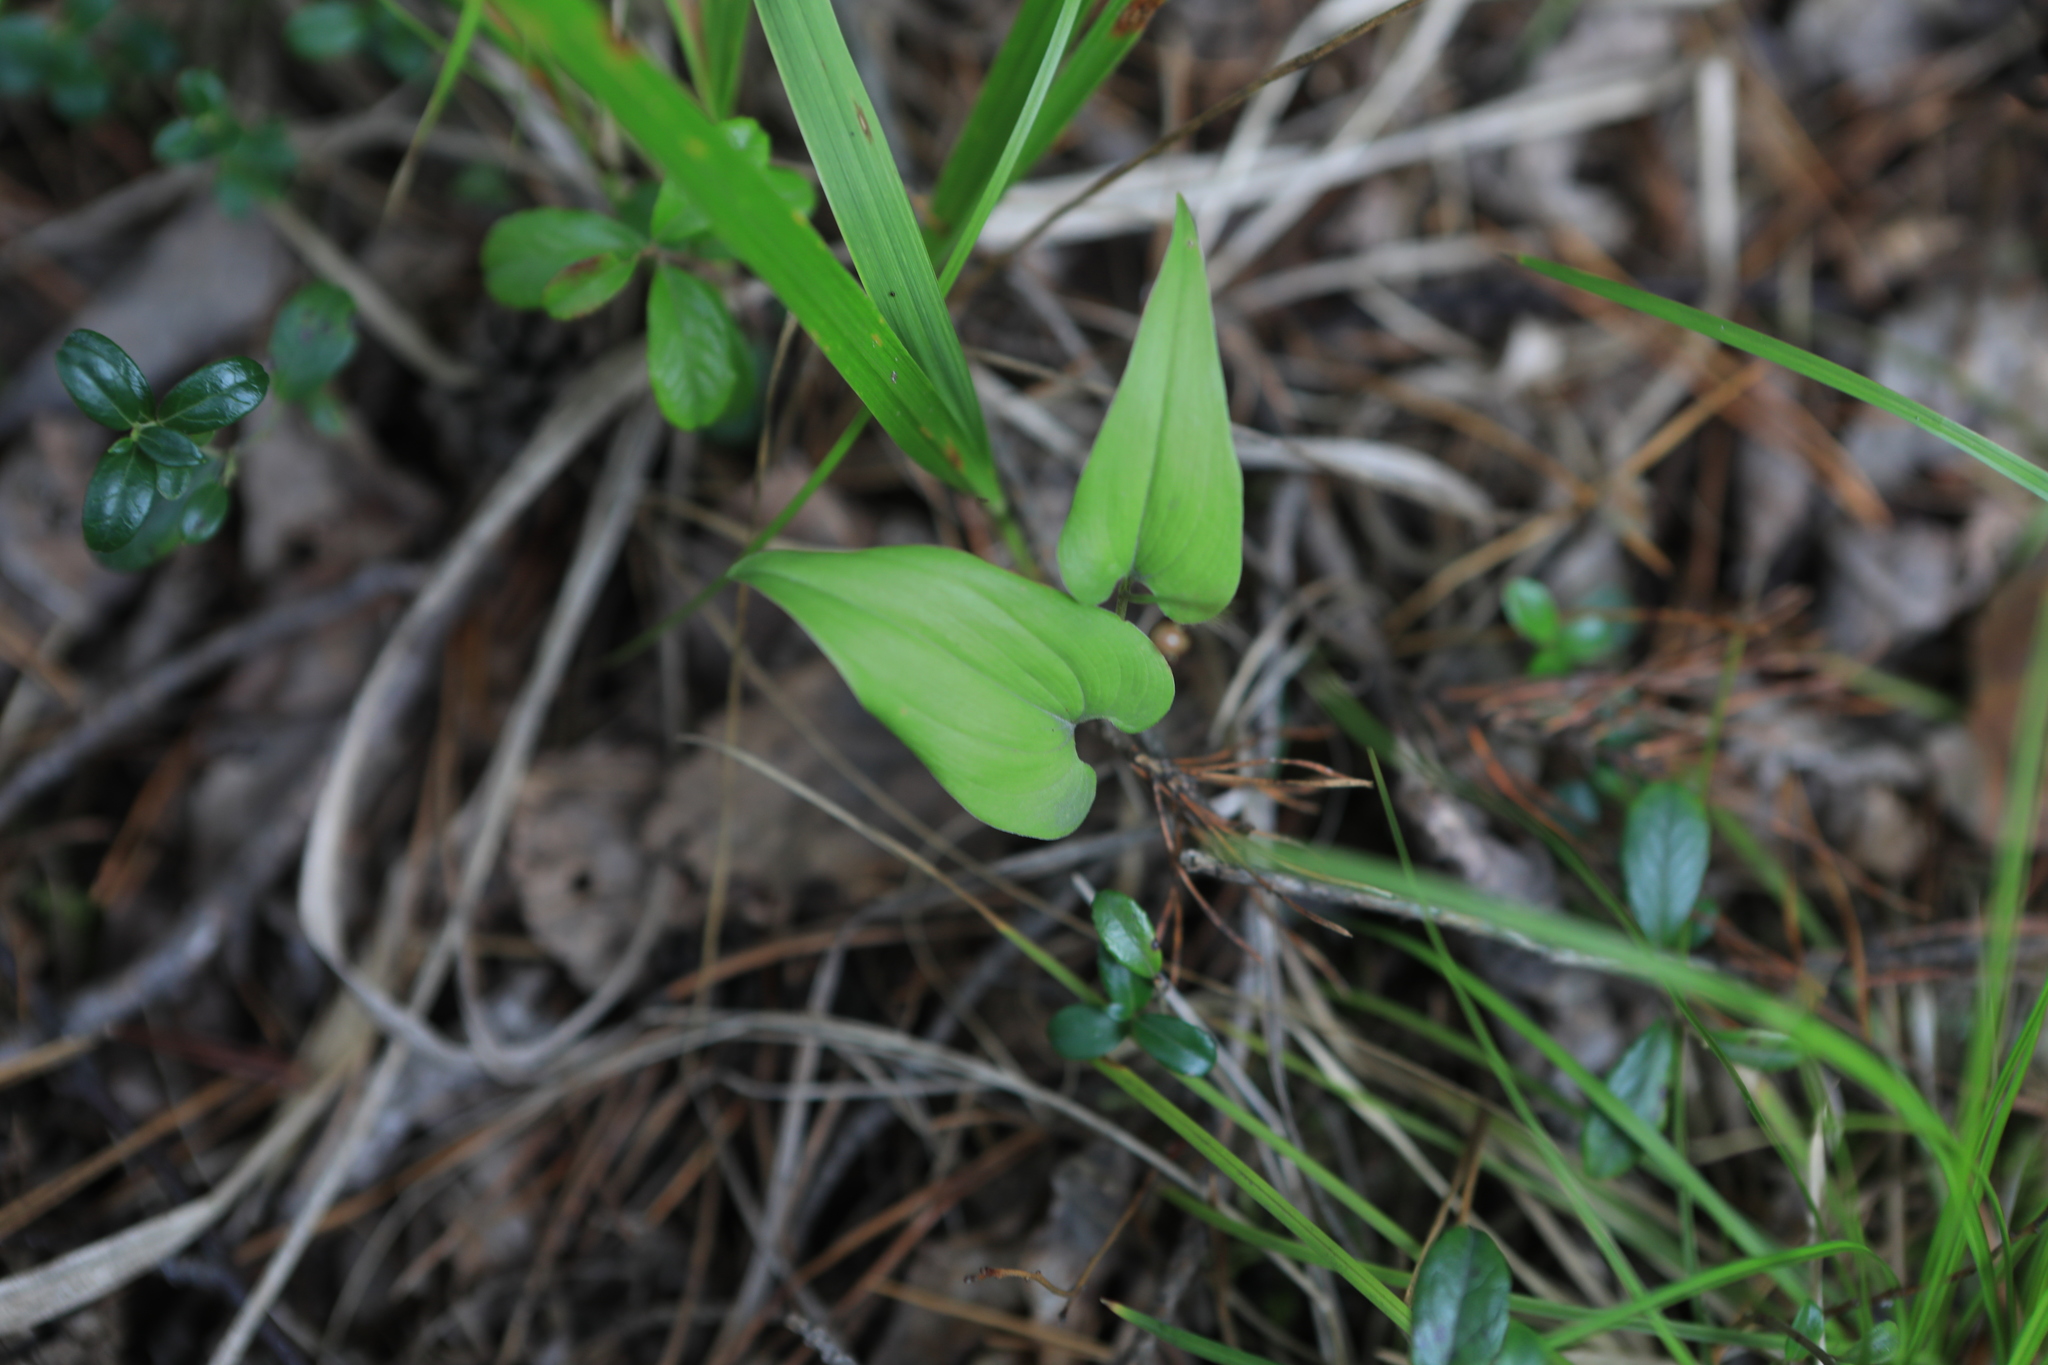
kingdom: Plantae
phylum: Tracheophyta
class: Liliopsida
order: Asparagales
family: Asparagaceae
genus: Maianthemum
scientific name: Maianthemum bifolium
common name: May lily
